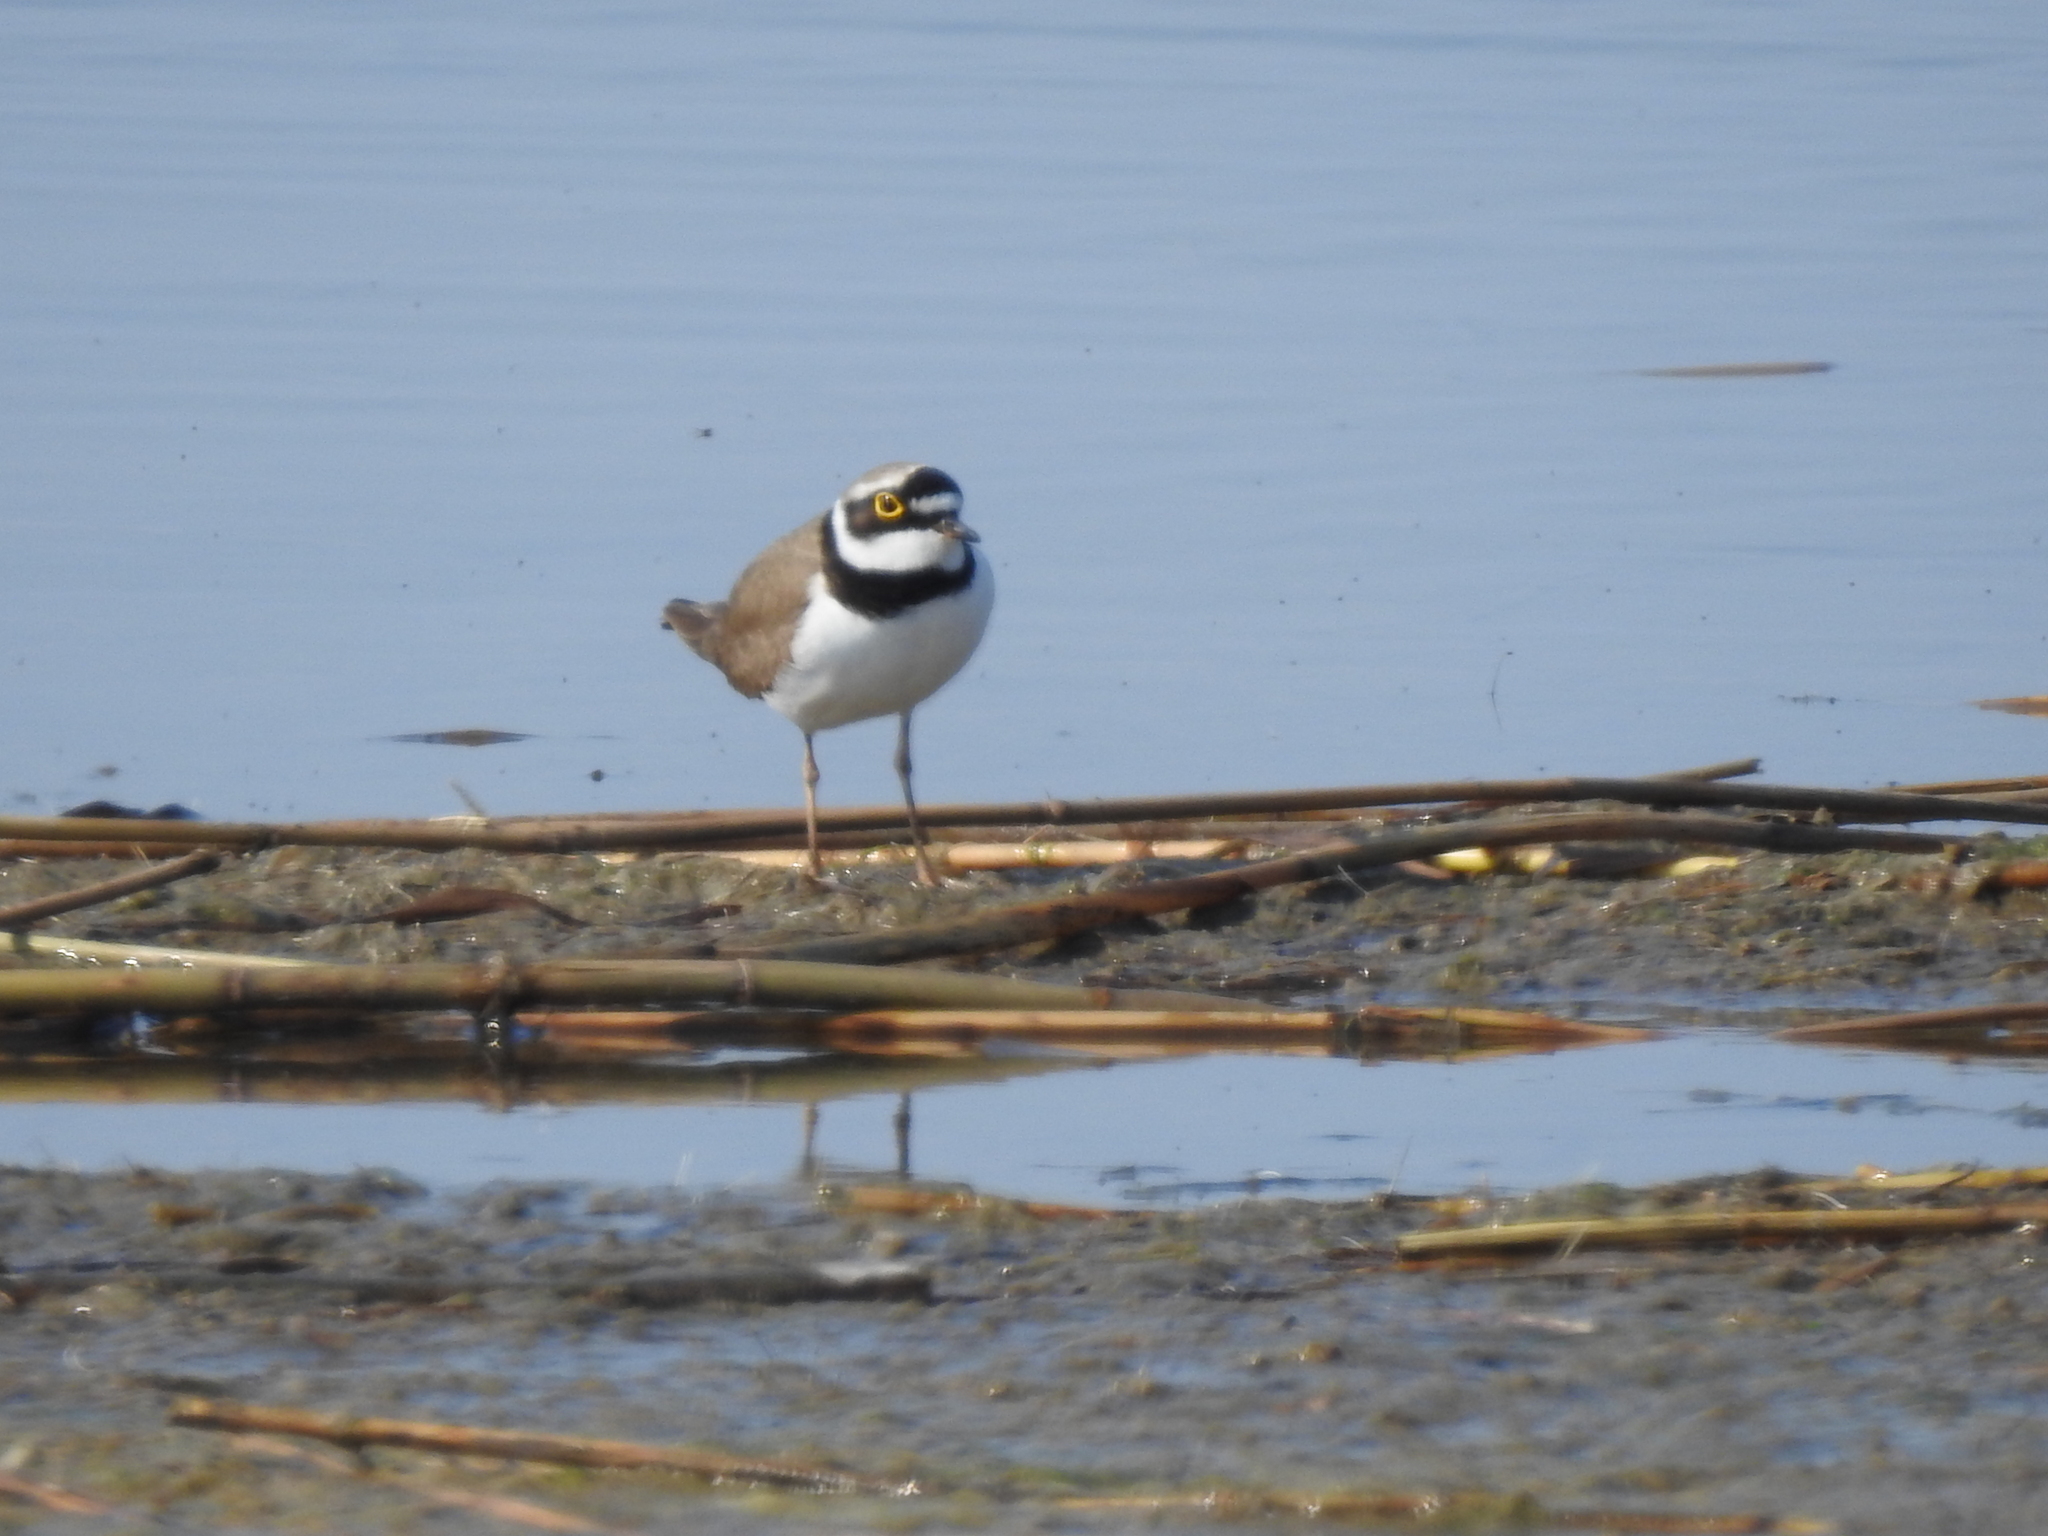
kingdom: Animalia
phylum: Chordata
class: Aves
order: Charadriiformes
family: Charadriidae
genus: Charadrius
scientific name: Charadrius dubius
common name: Little ringed plover
